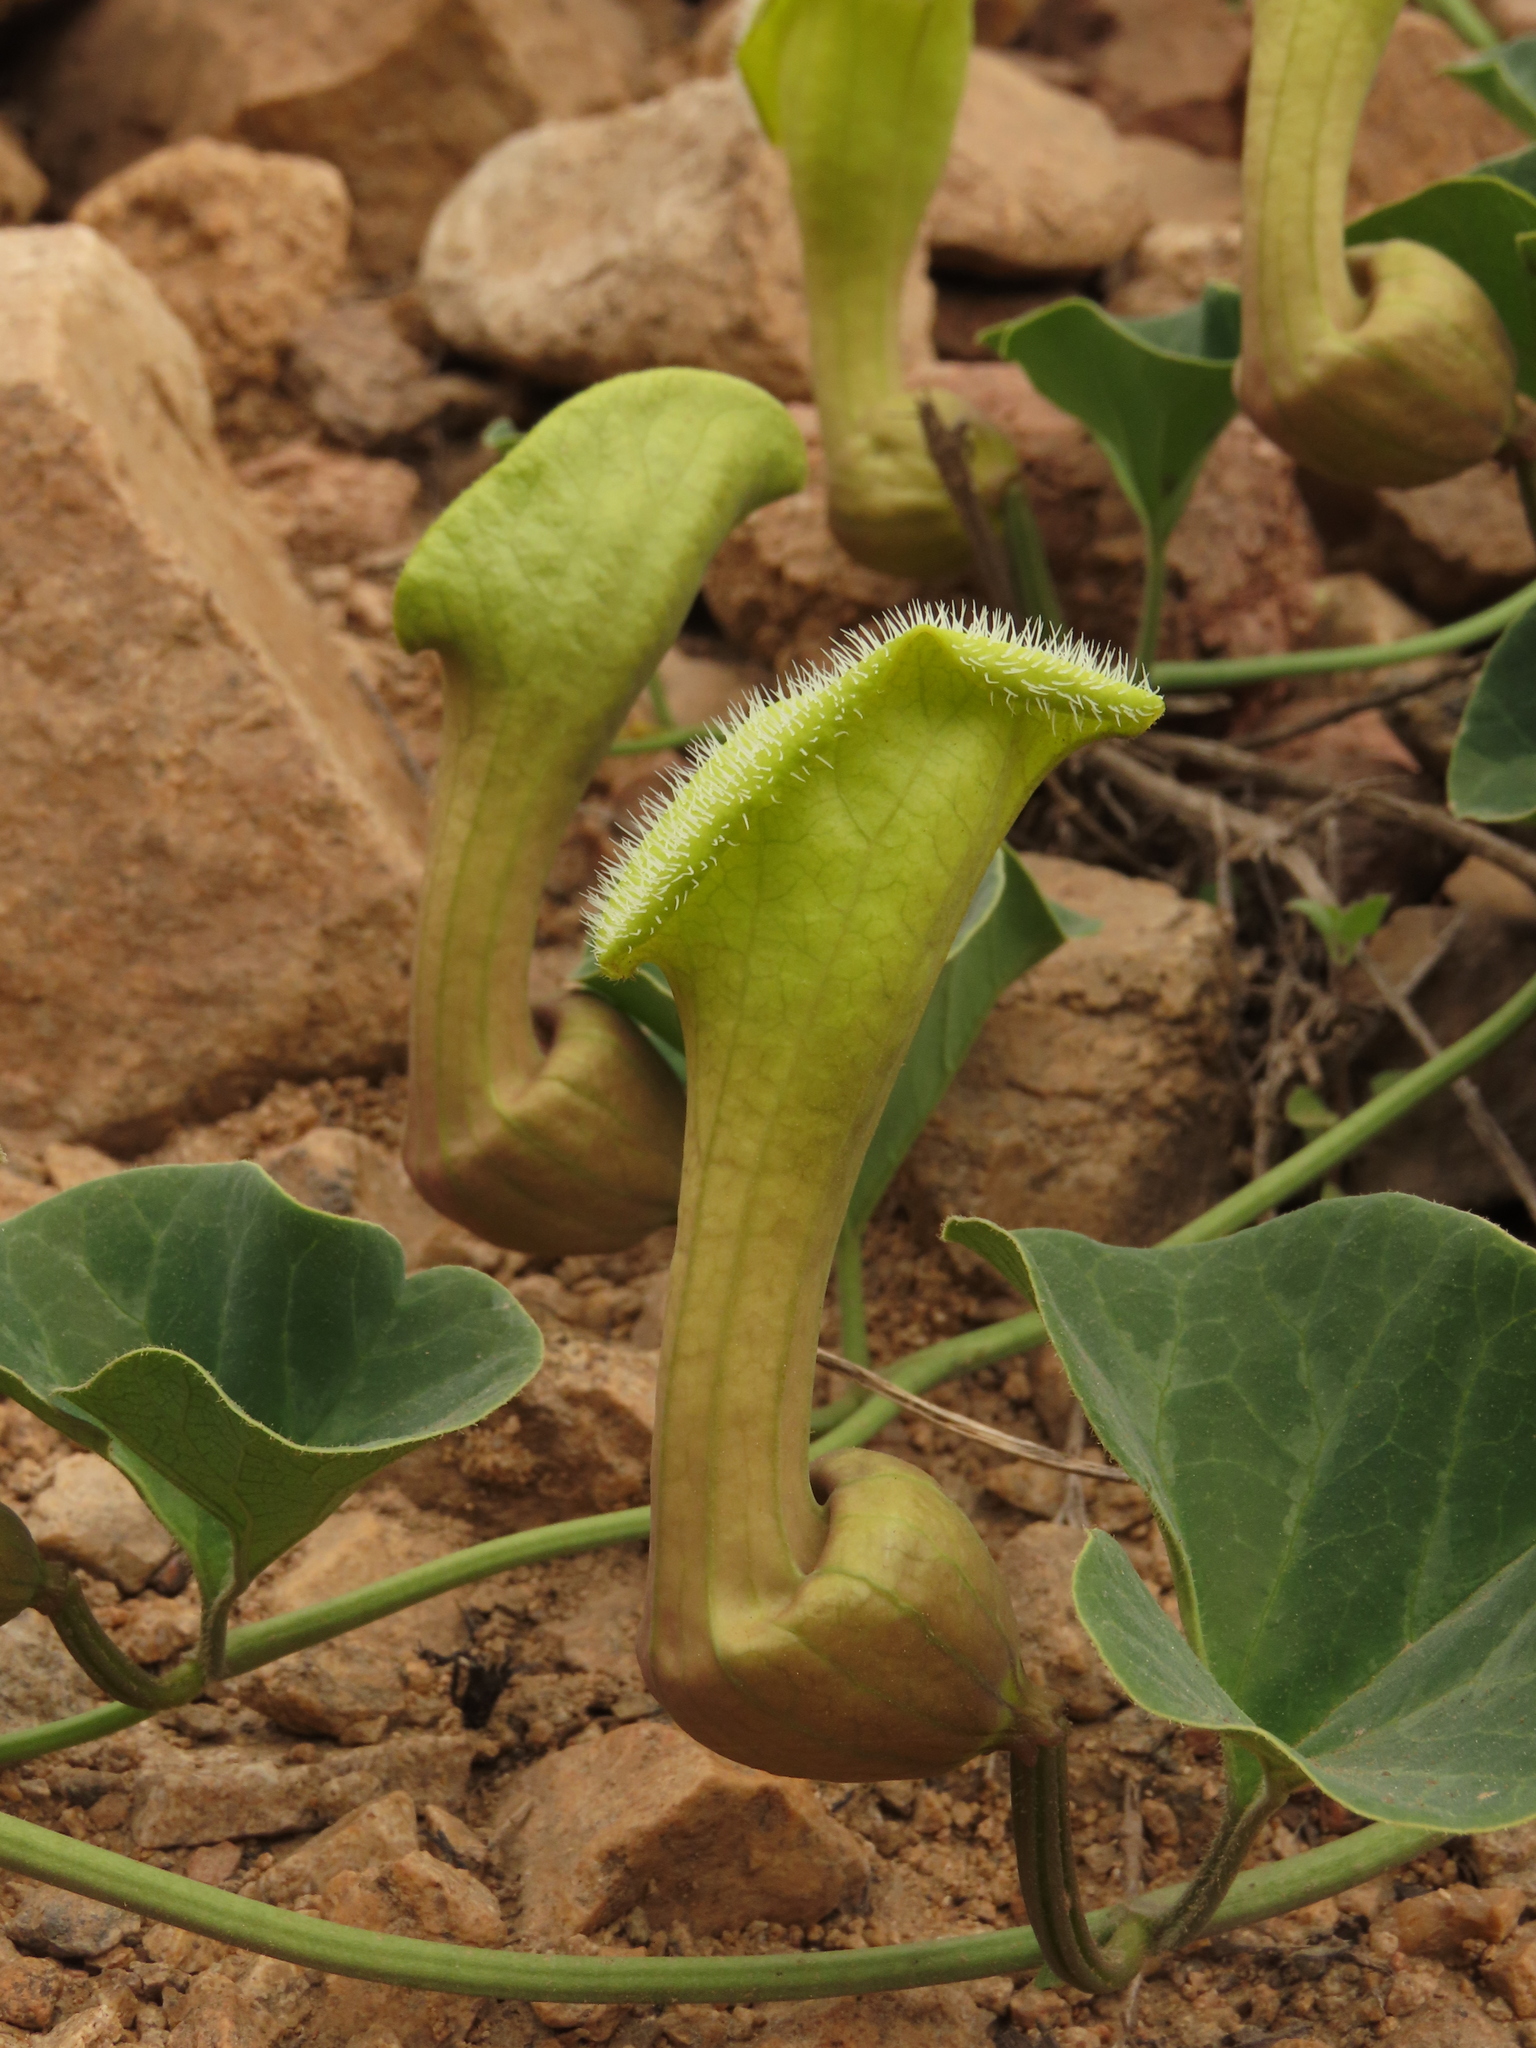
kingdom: Plantae
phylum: Tracheophyta
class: Magnoliopsida
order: Piperales
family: Aristolochiaceae
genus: Aristolochia
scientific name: Aristolochia
